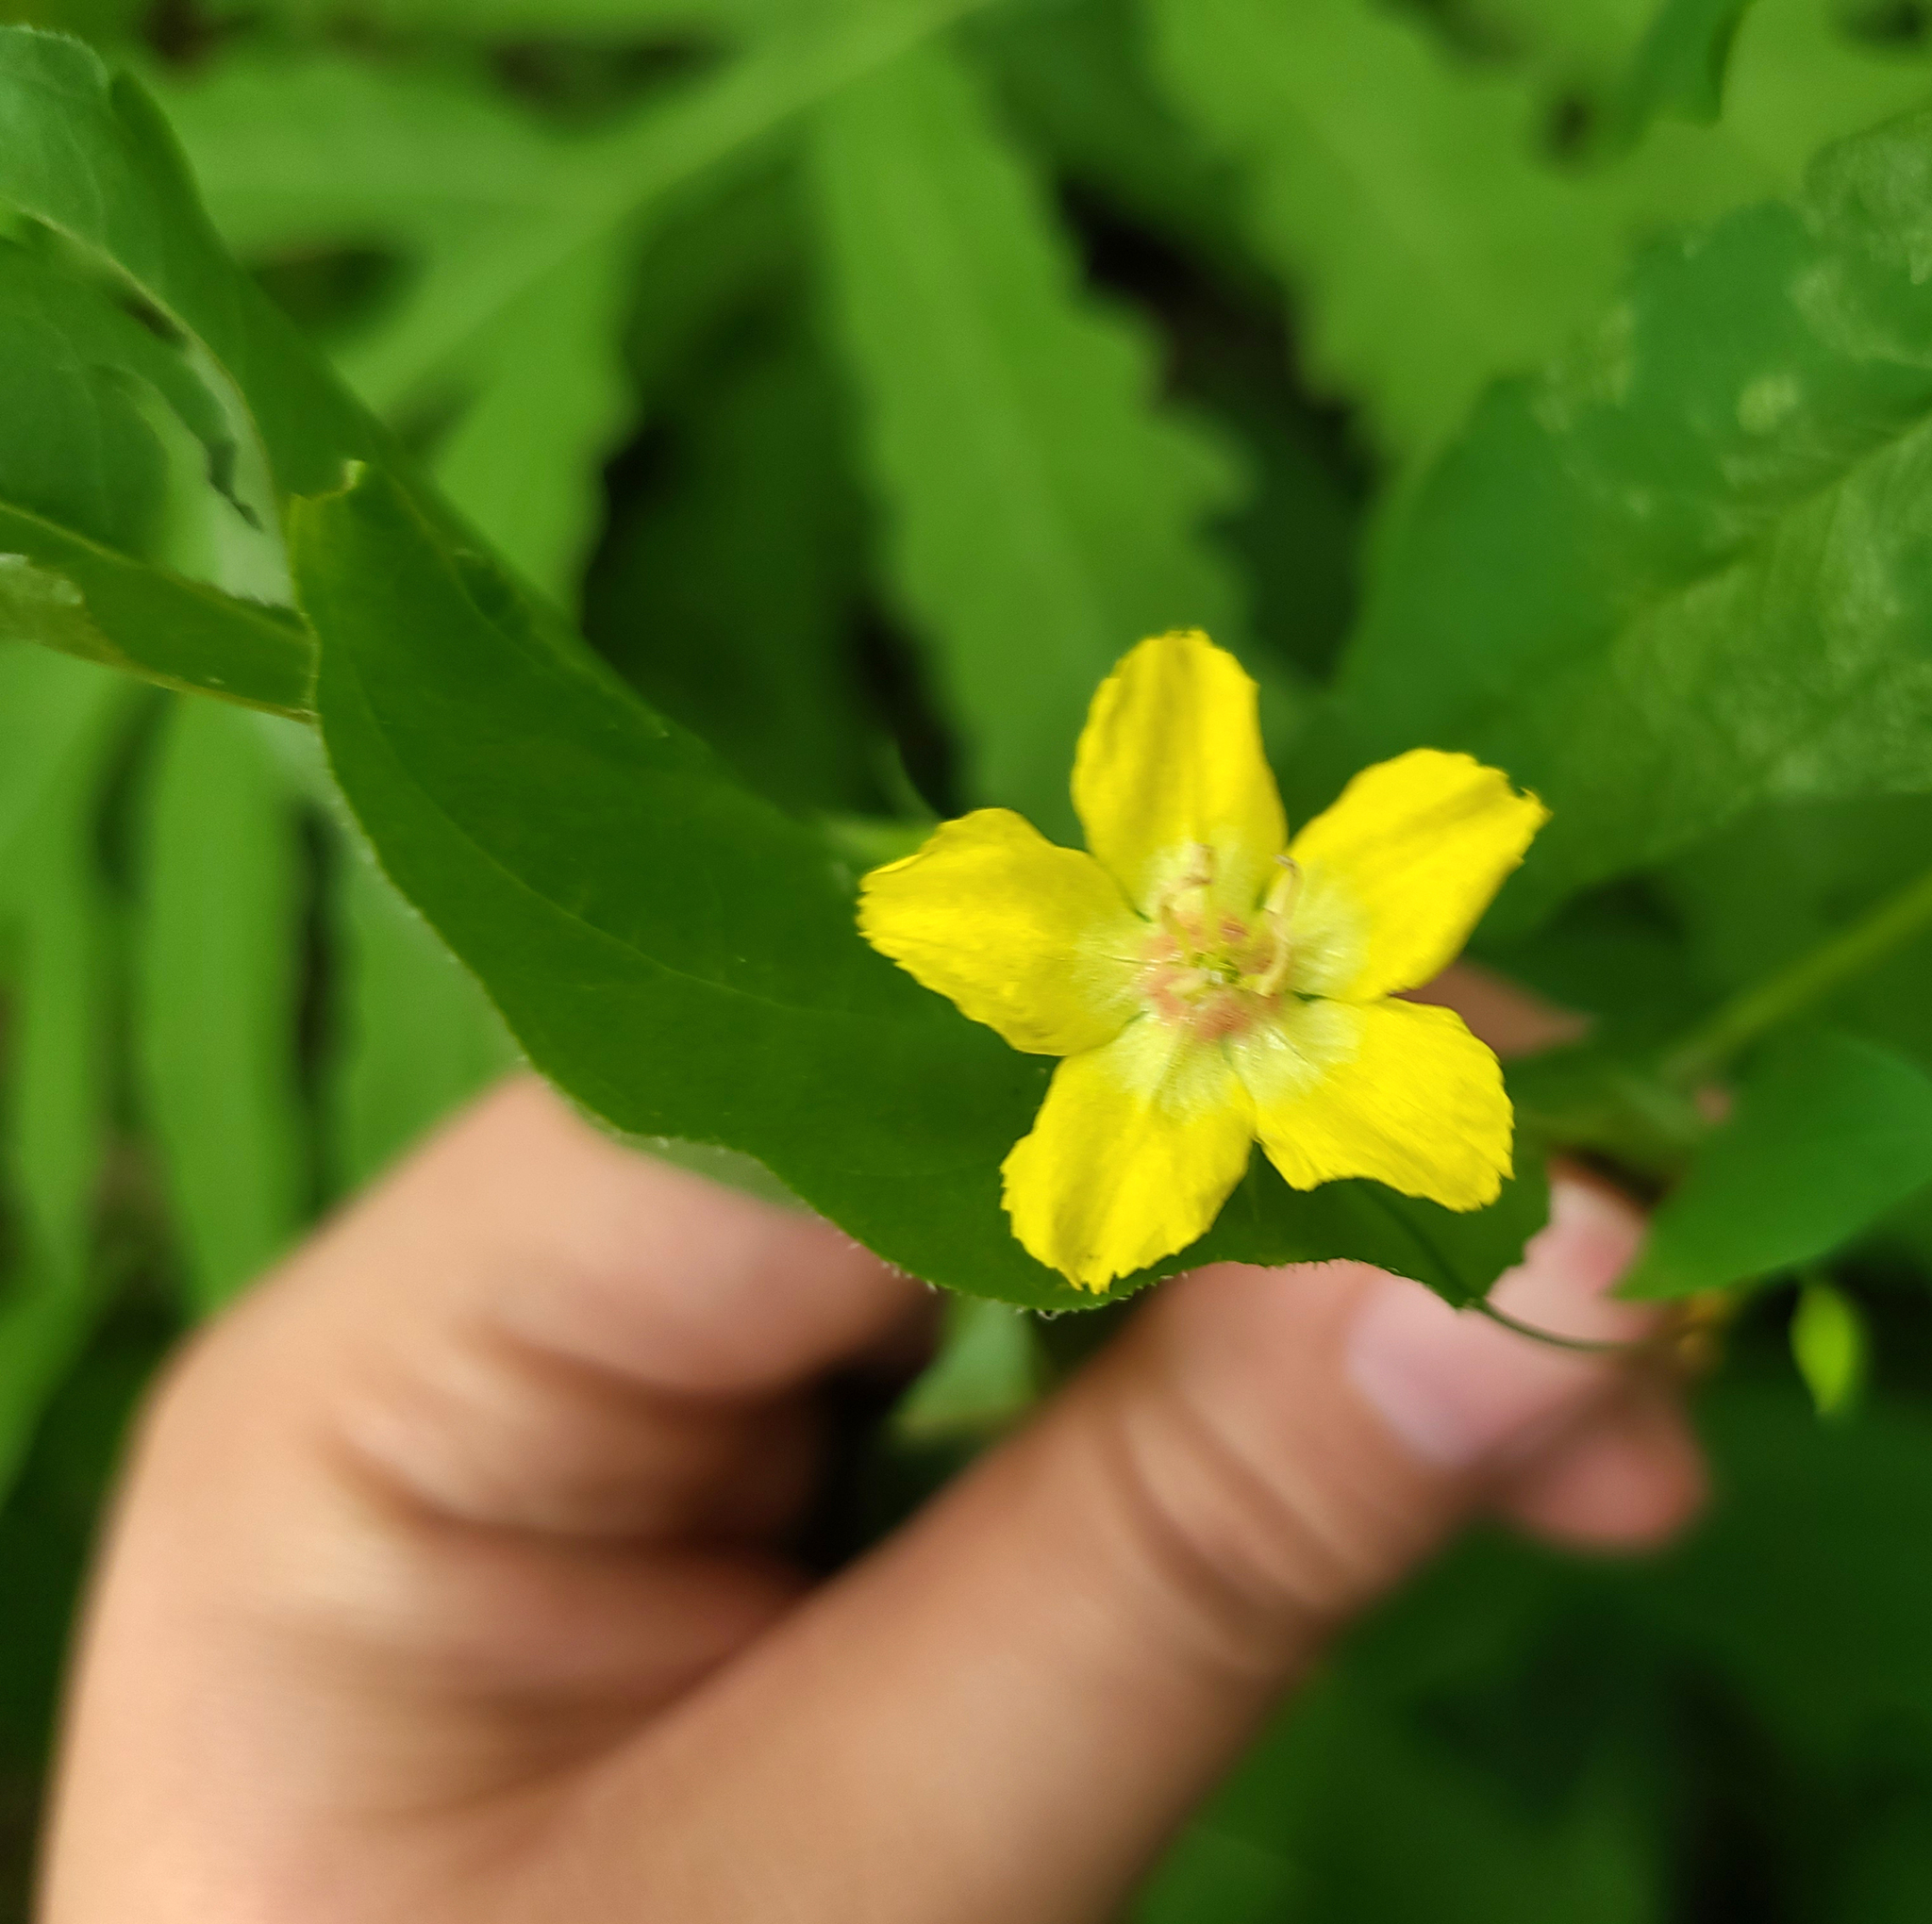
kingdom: Plantae
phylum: Tracheophyta
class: Magnoliopsida
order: Ericales
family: Primulaceae
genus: Lysimachia
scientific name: Lysimachia ciliata
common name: Fringed loosestrife
